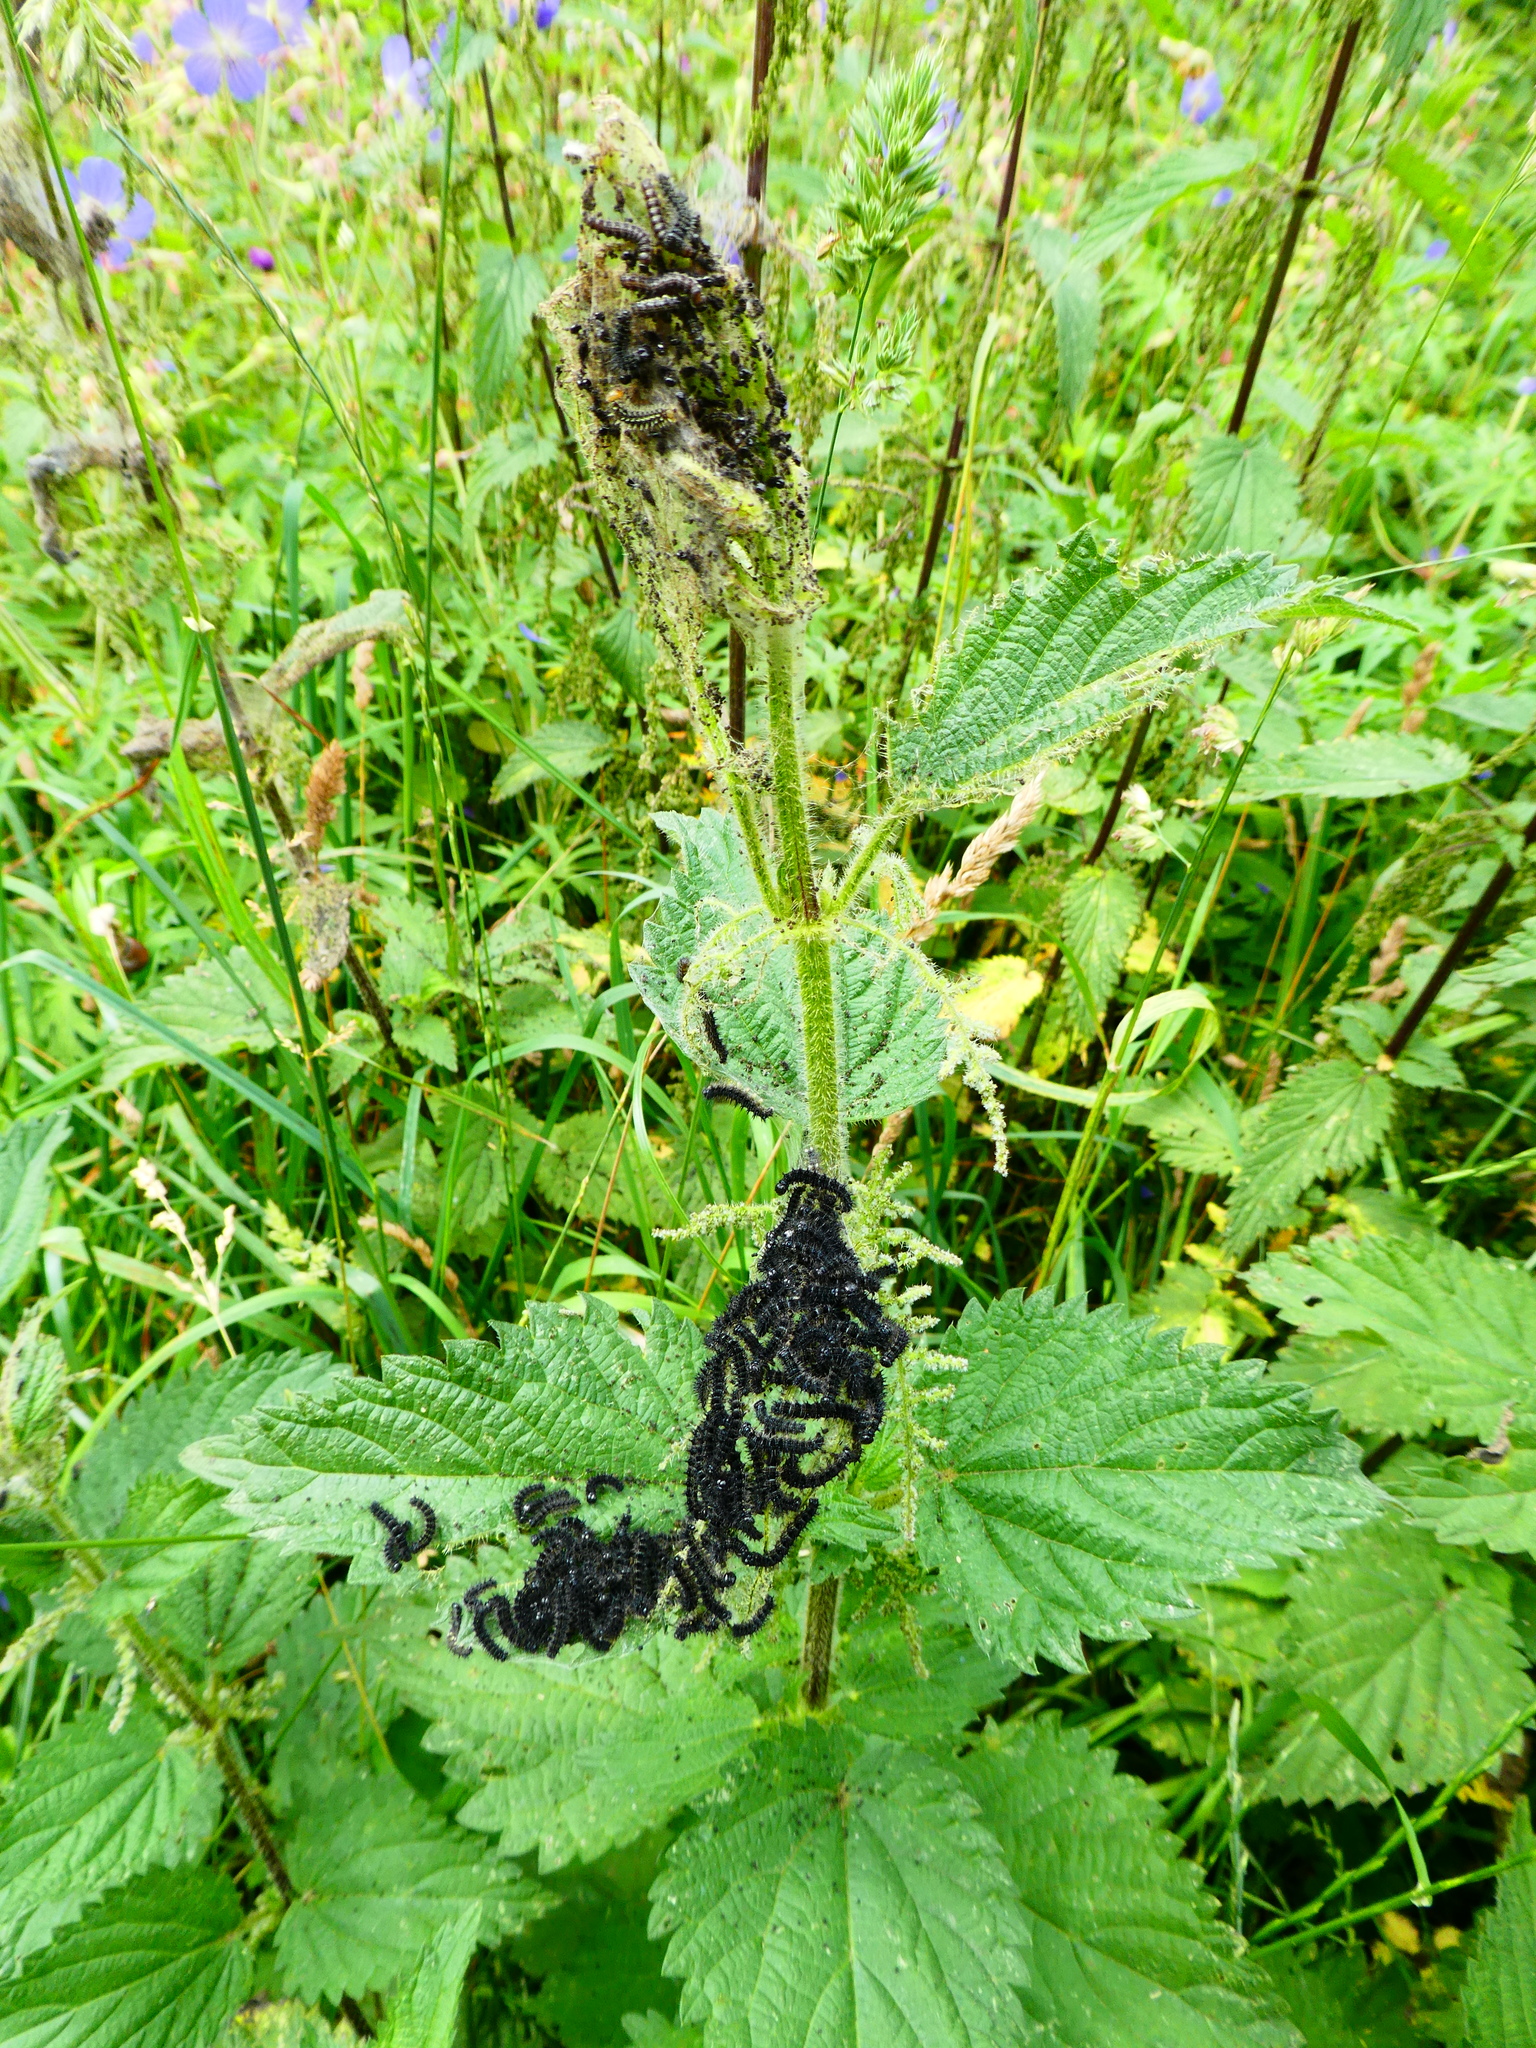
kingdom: Animalia
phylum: Arthropoda
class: Insecta
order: Lepidoptera
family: Nymphalidae
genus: Aglais
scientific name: Aglais urticae
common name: Small tortoiseshell
